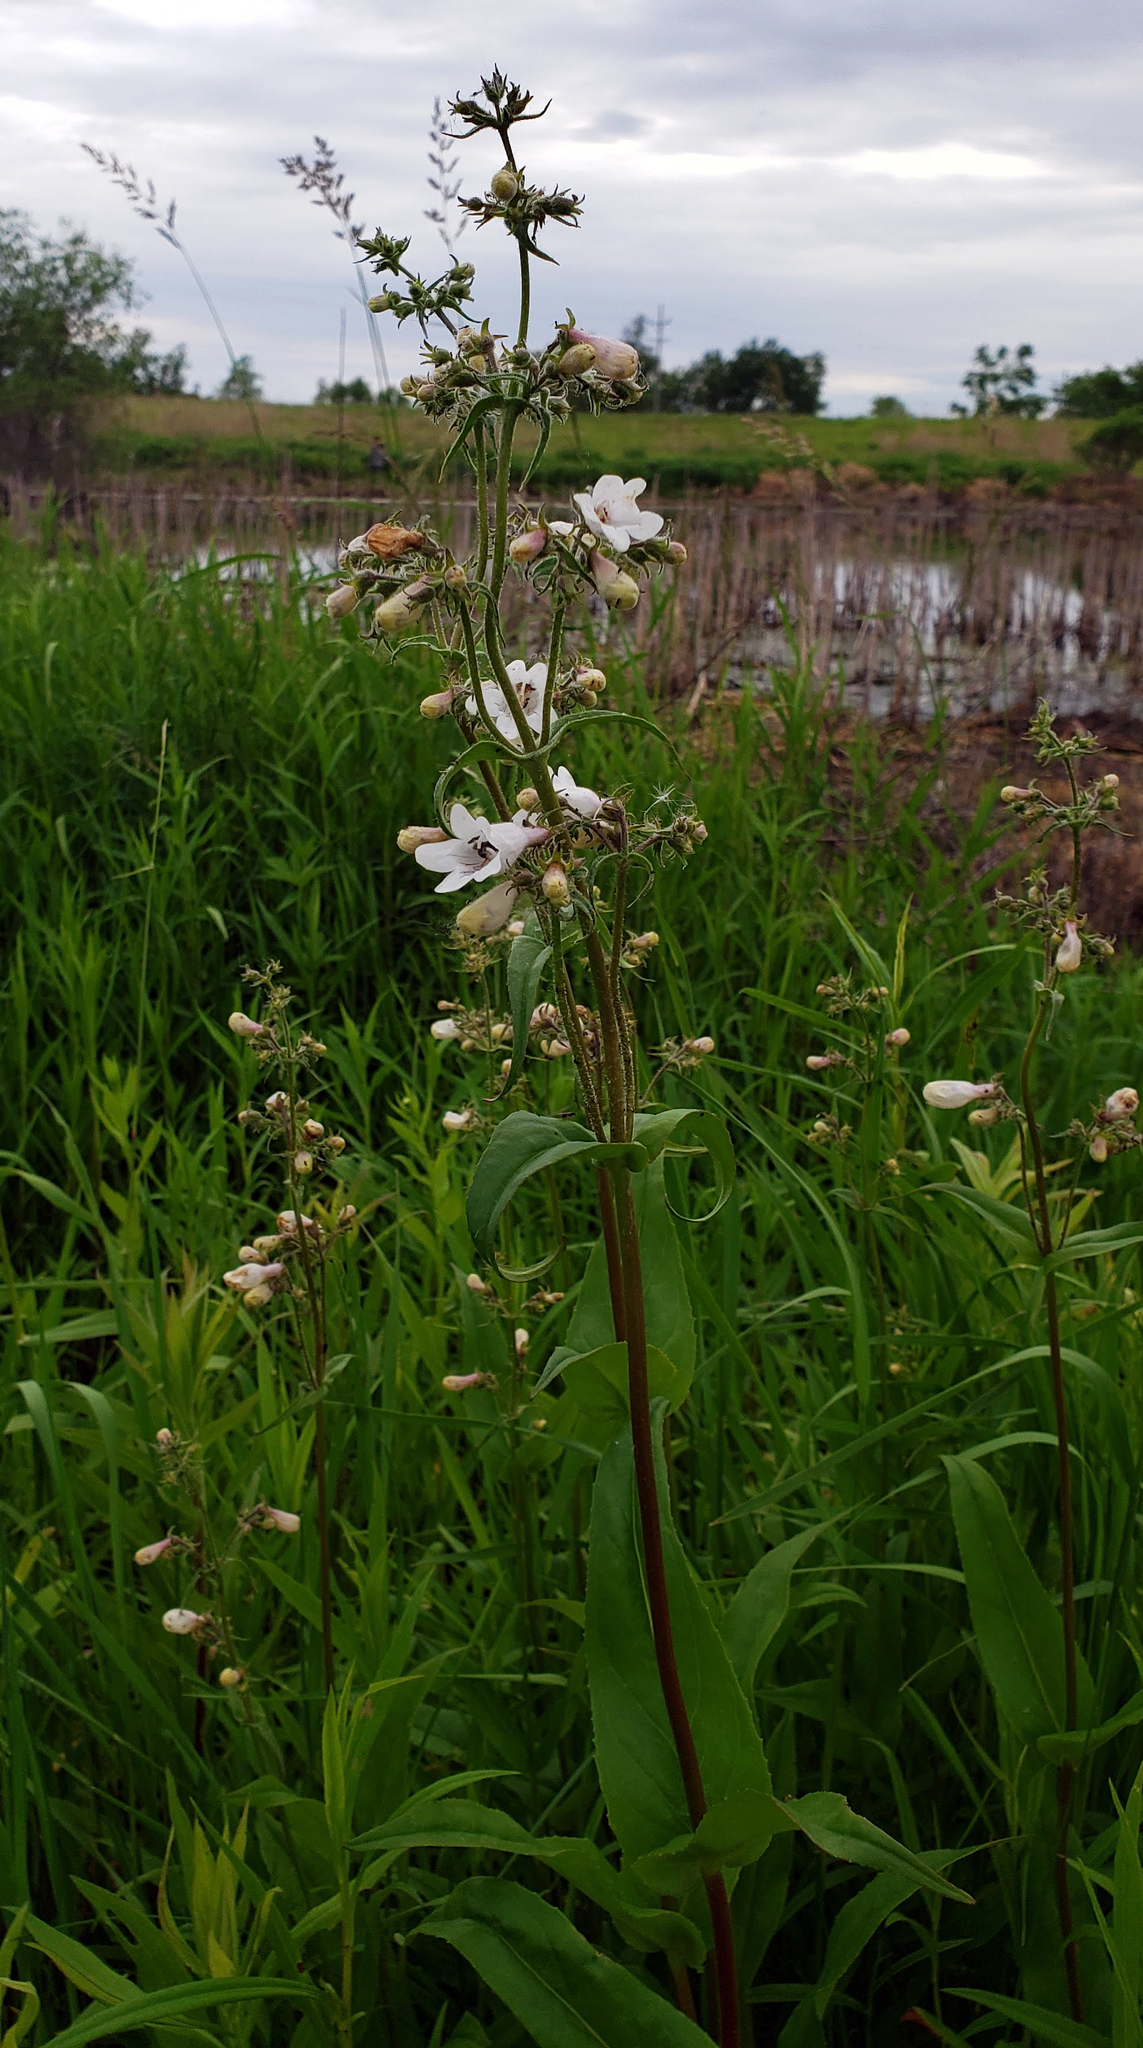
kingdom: Plantae
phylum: Tracheophyta
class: Magnoliopsida
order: Lamiales
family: Plantaginaceae
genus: Penstemon
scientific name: Penstemon digitalis
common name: Foxglove beardtongue
